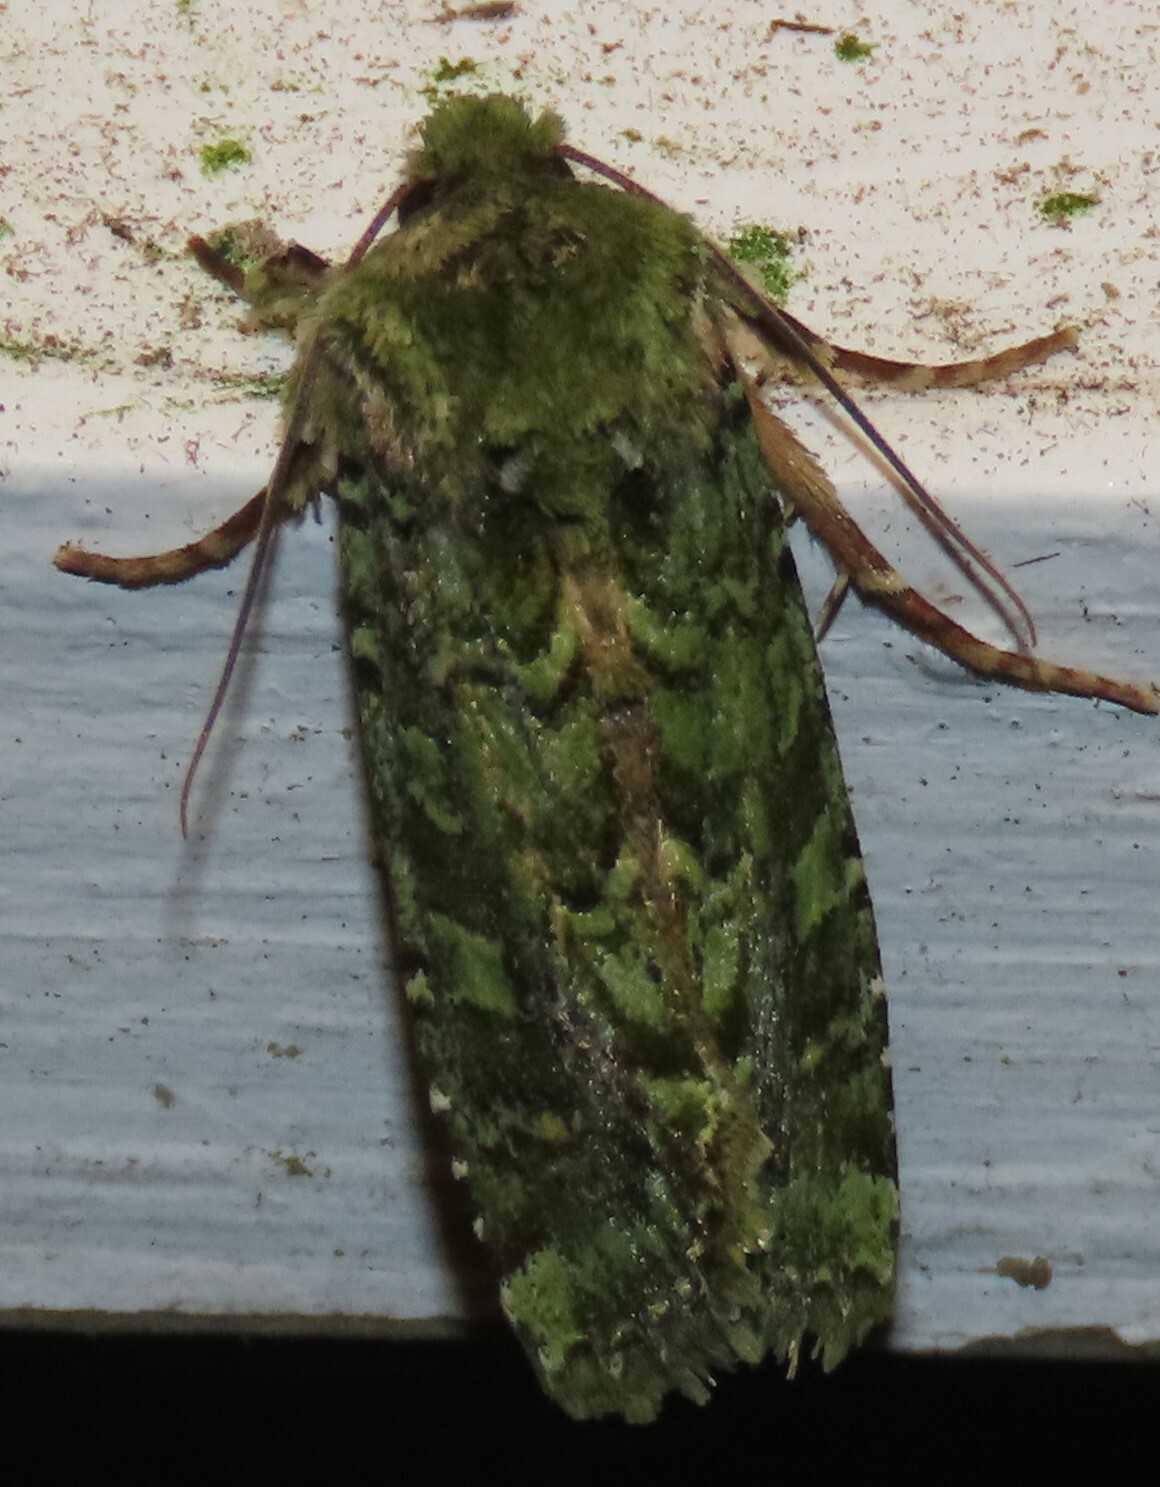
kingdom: Animalia
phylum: Arthropoda
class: Insecta
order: Lepidoptera
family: Noctuidae
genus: Feredayia
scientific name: Feredayia grammosa
